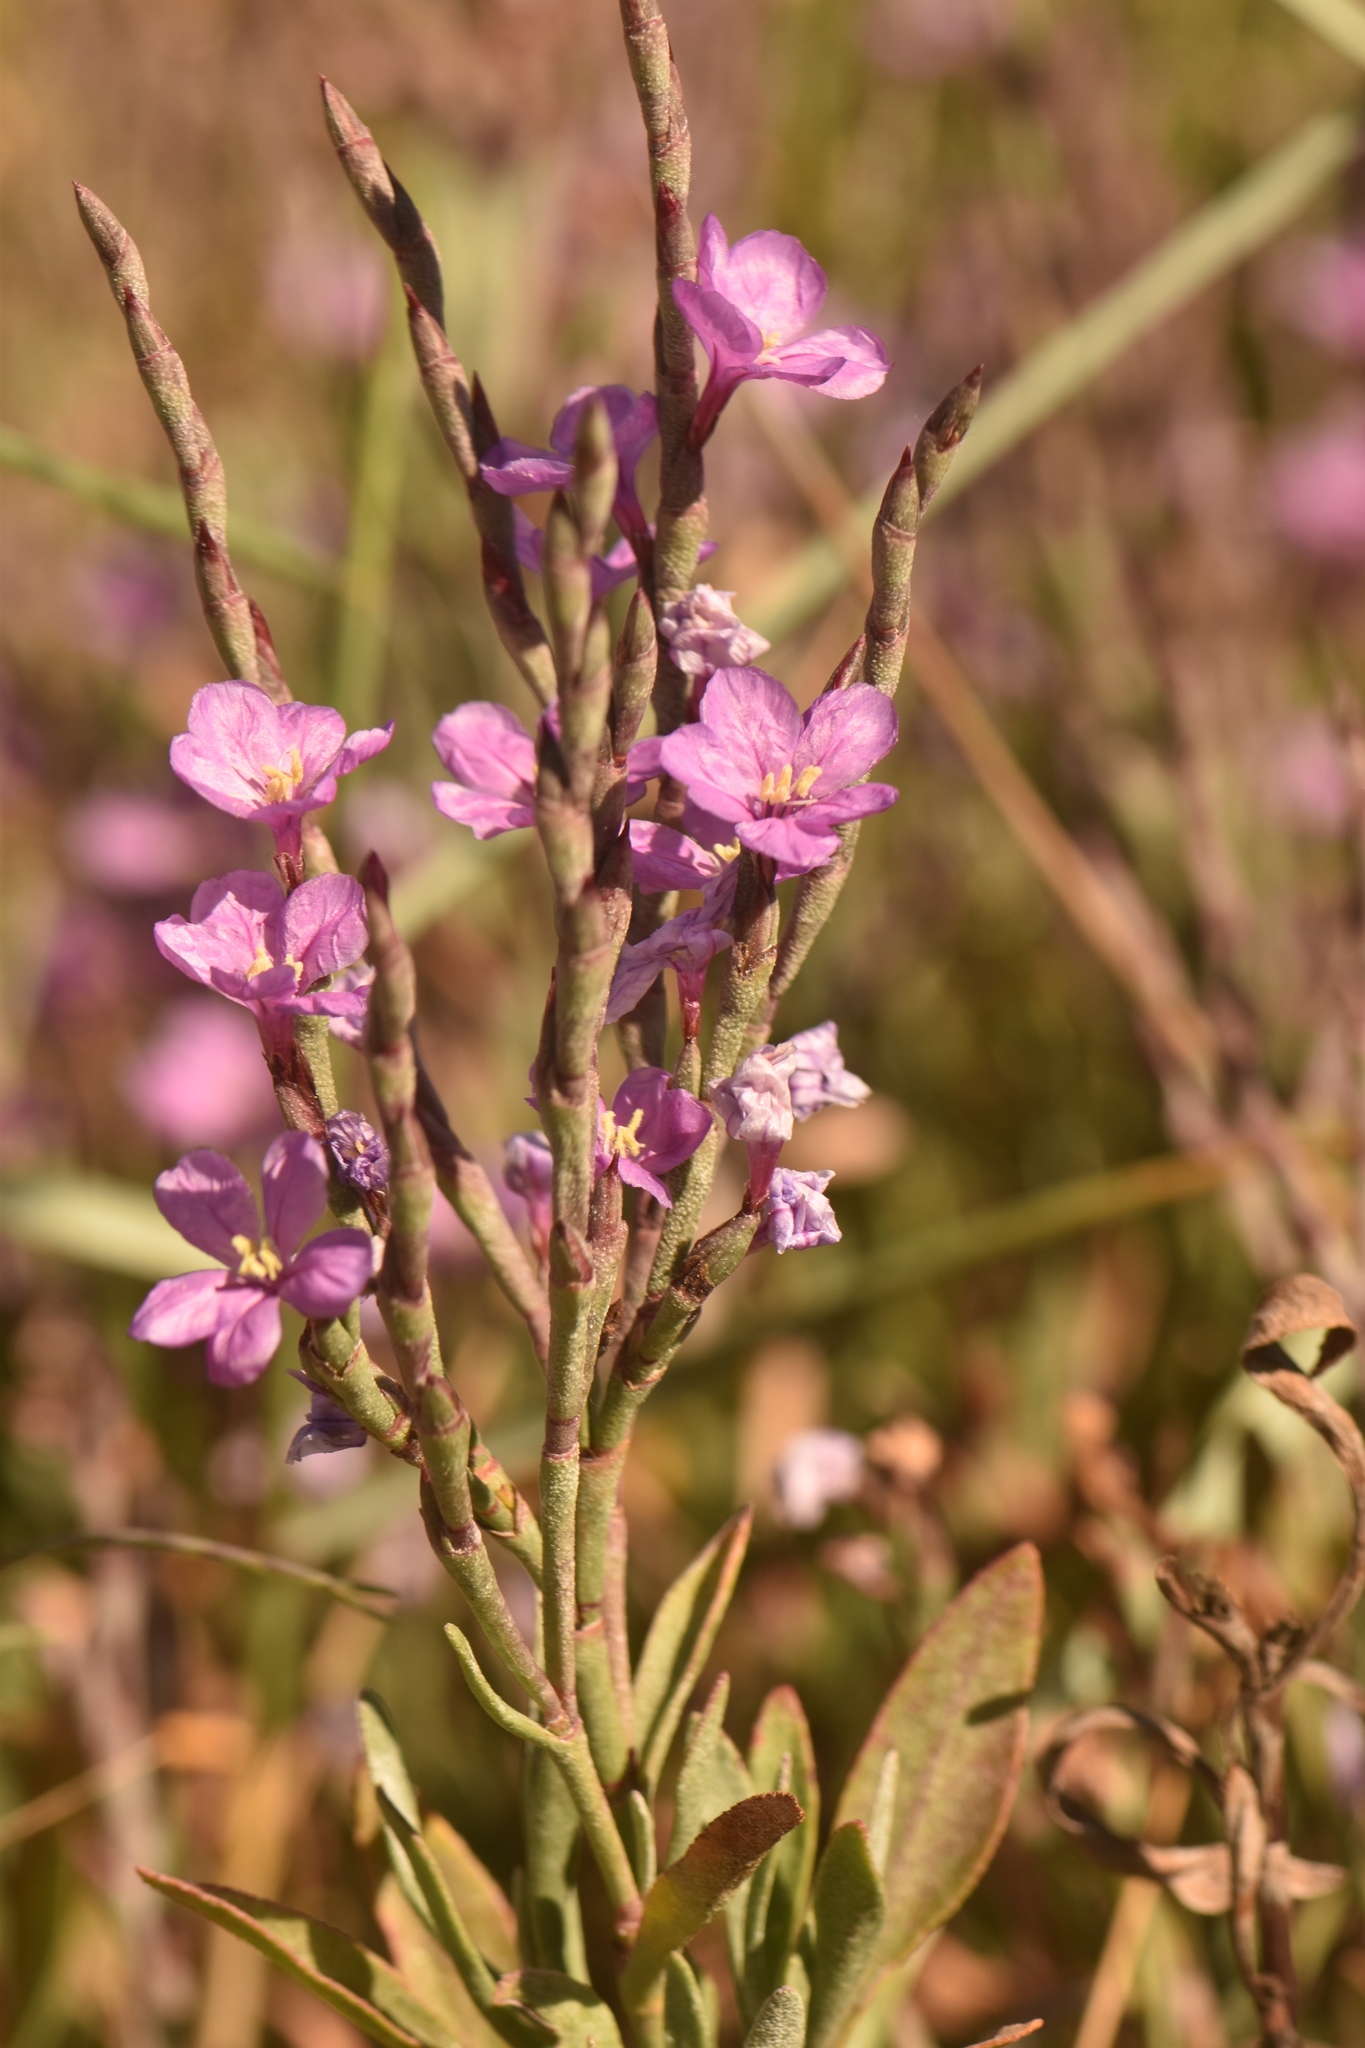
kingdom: Plantae
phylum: Tracheophyta
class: Magnoliopsida
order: Caryophyllales
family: Plumbaginaceae
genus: Limoniastrum
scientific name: Limoniastrum monopetalum
